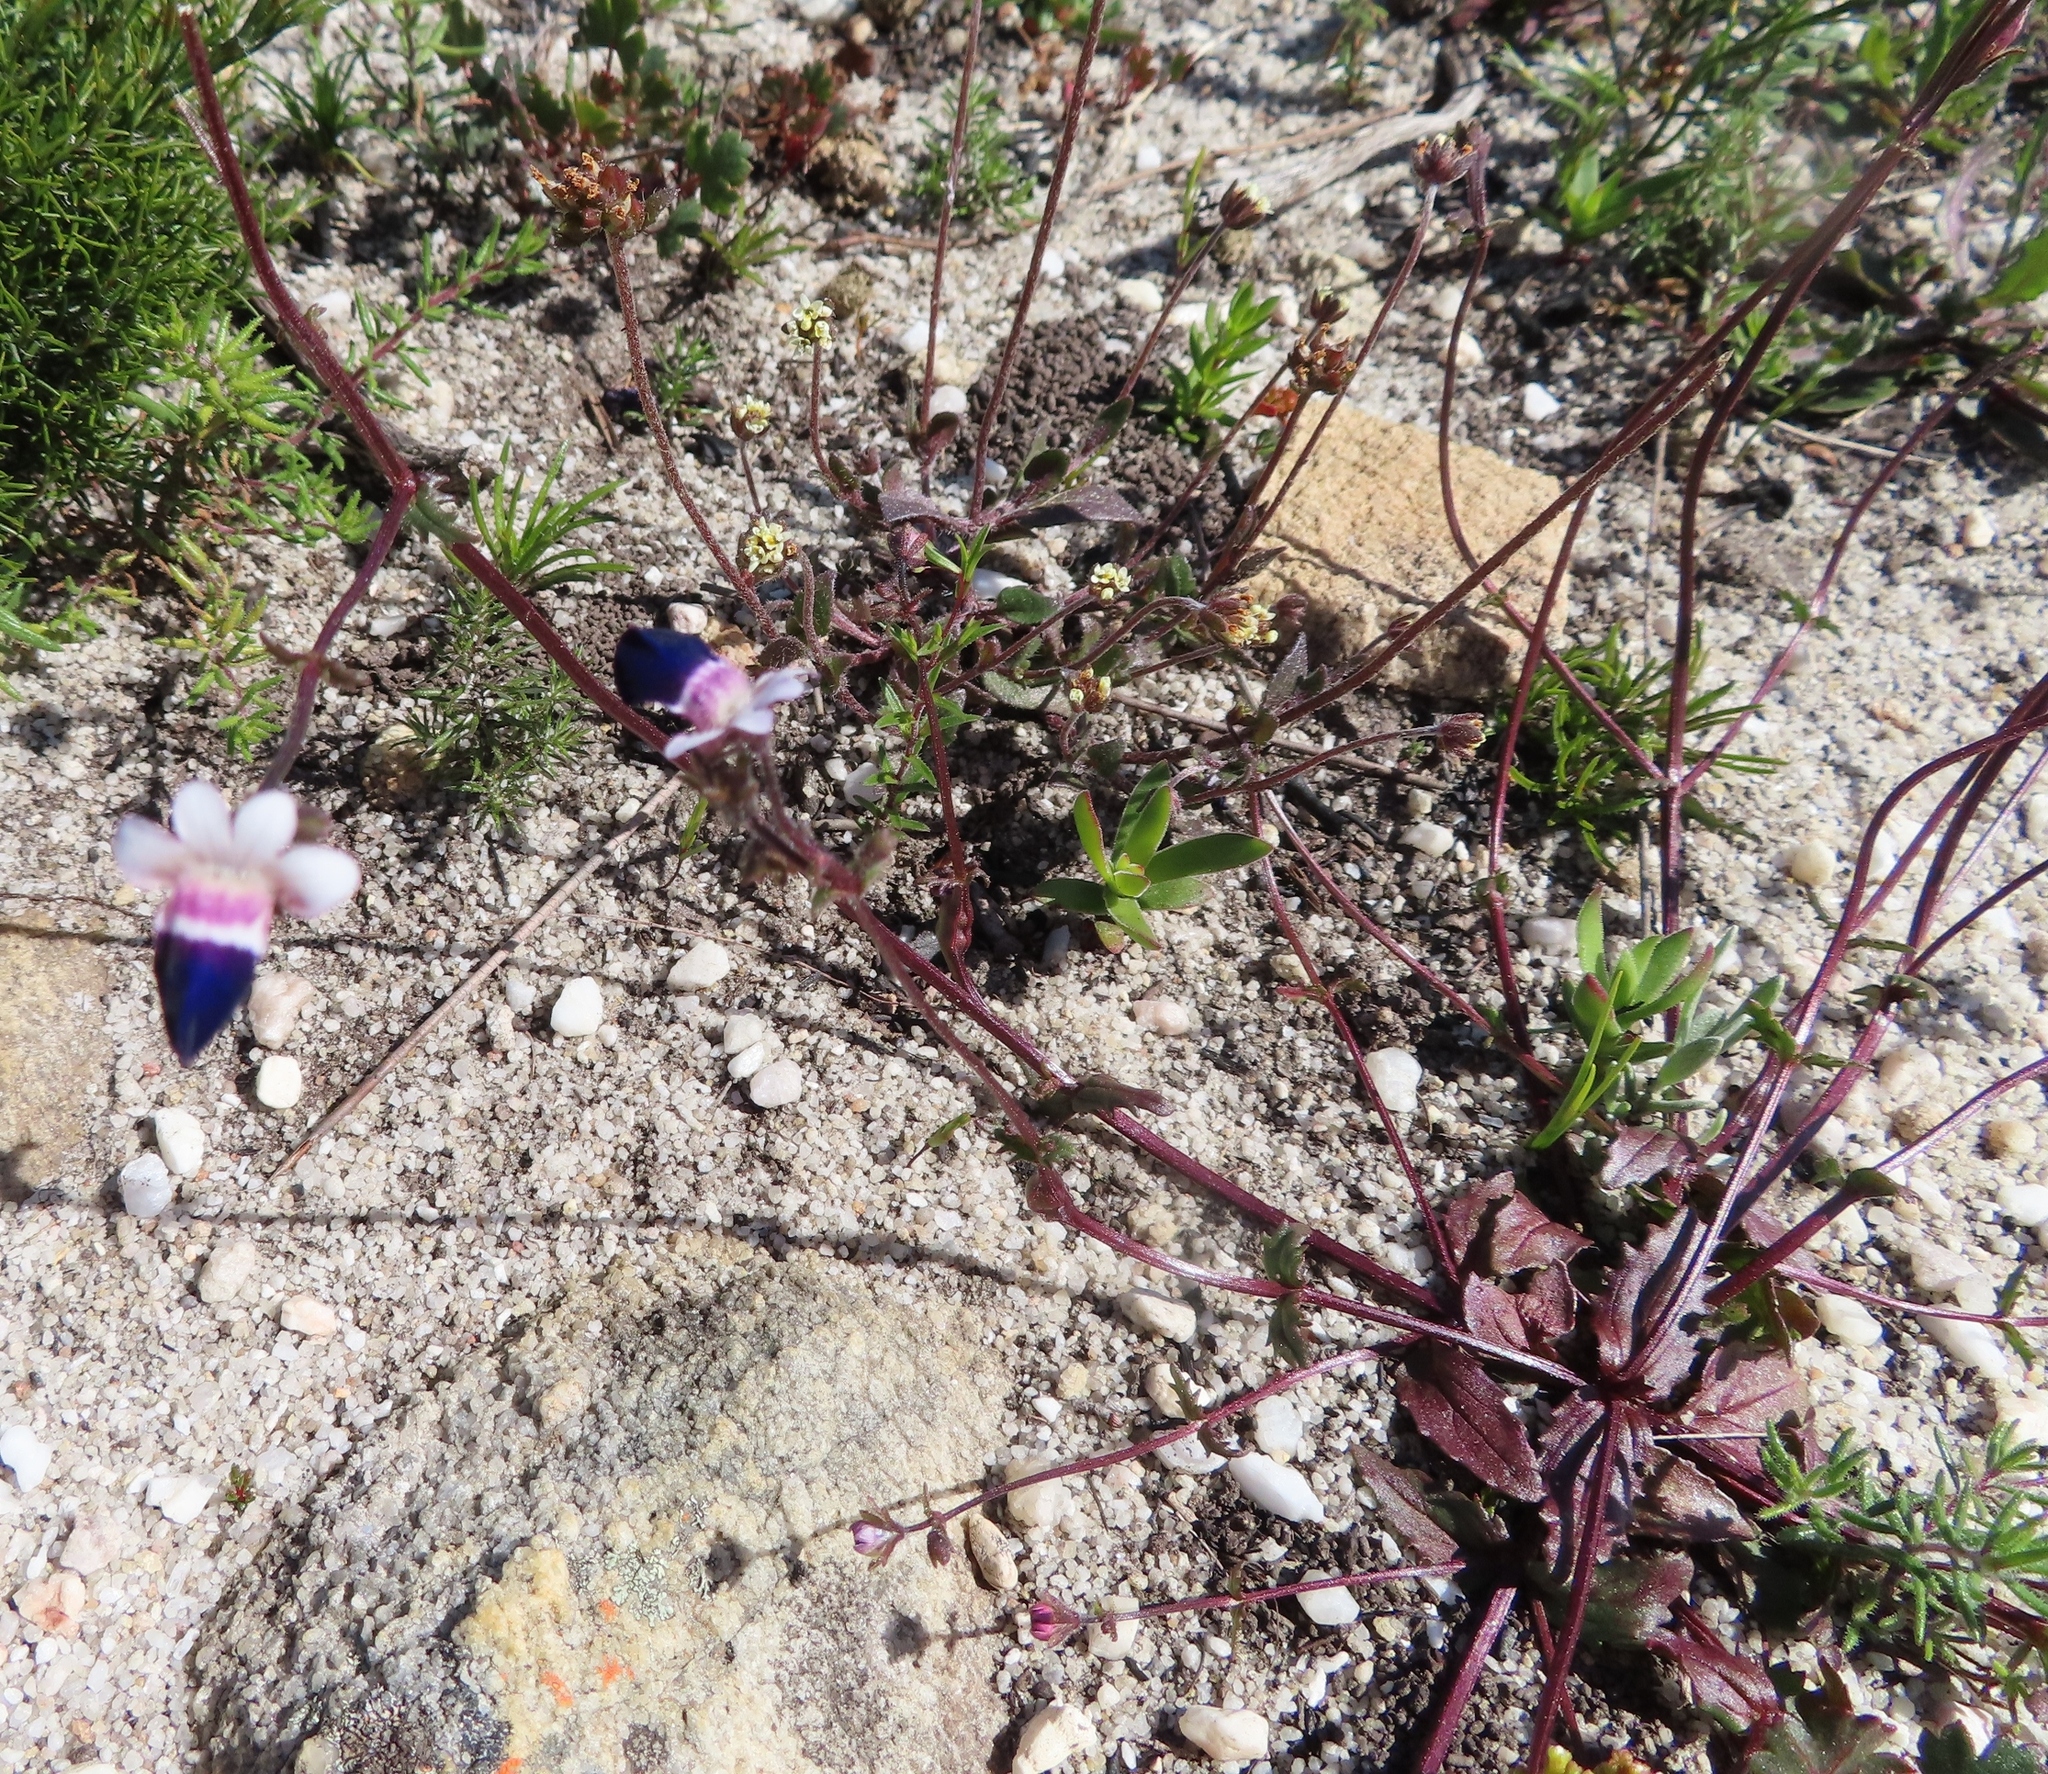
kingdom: Plantae
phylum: Tracheophyta
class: Magnoliopsida
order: Lamiales
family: Scrophulariaceae
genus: Nemesia
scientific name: Nemesia barbata
